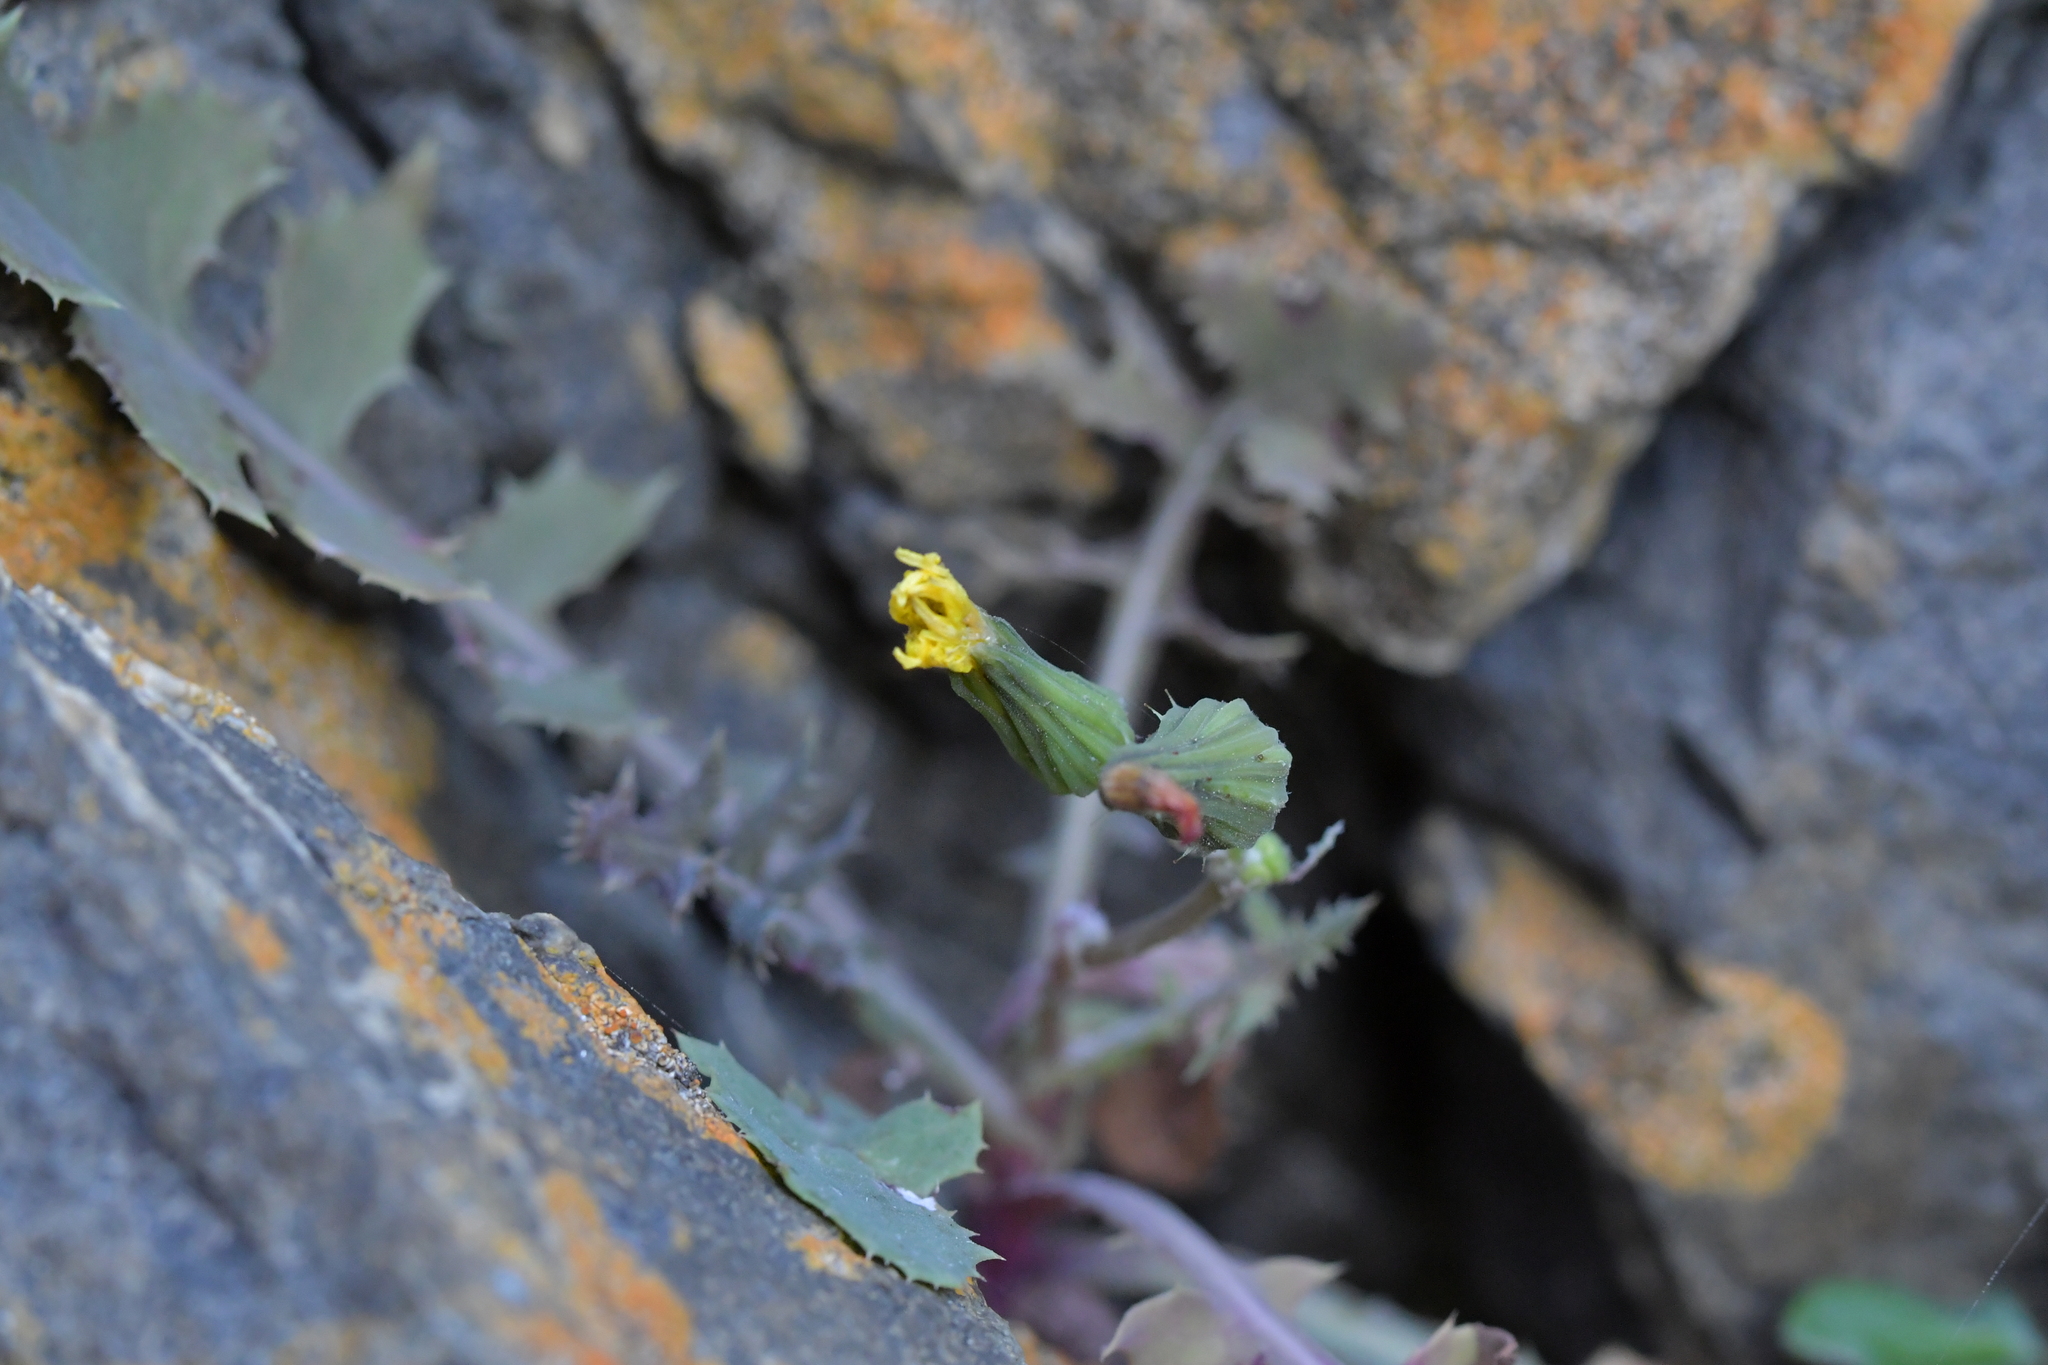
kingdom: Plantae
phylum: Tracheophyta
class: Magnoliopsida
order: Asterales
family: Asteraceae
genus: Sonchus
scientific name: Sonchus oleraceus
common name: Common sowthistle
